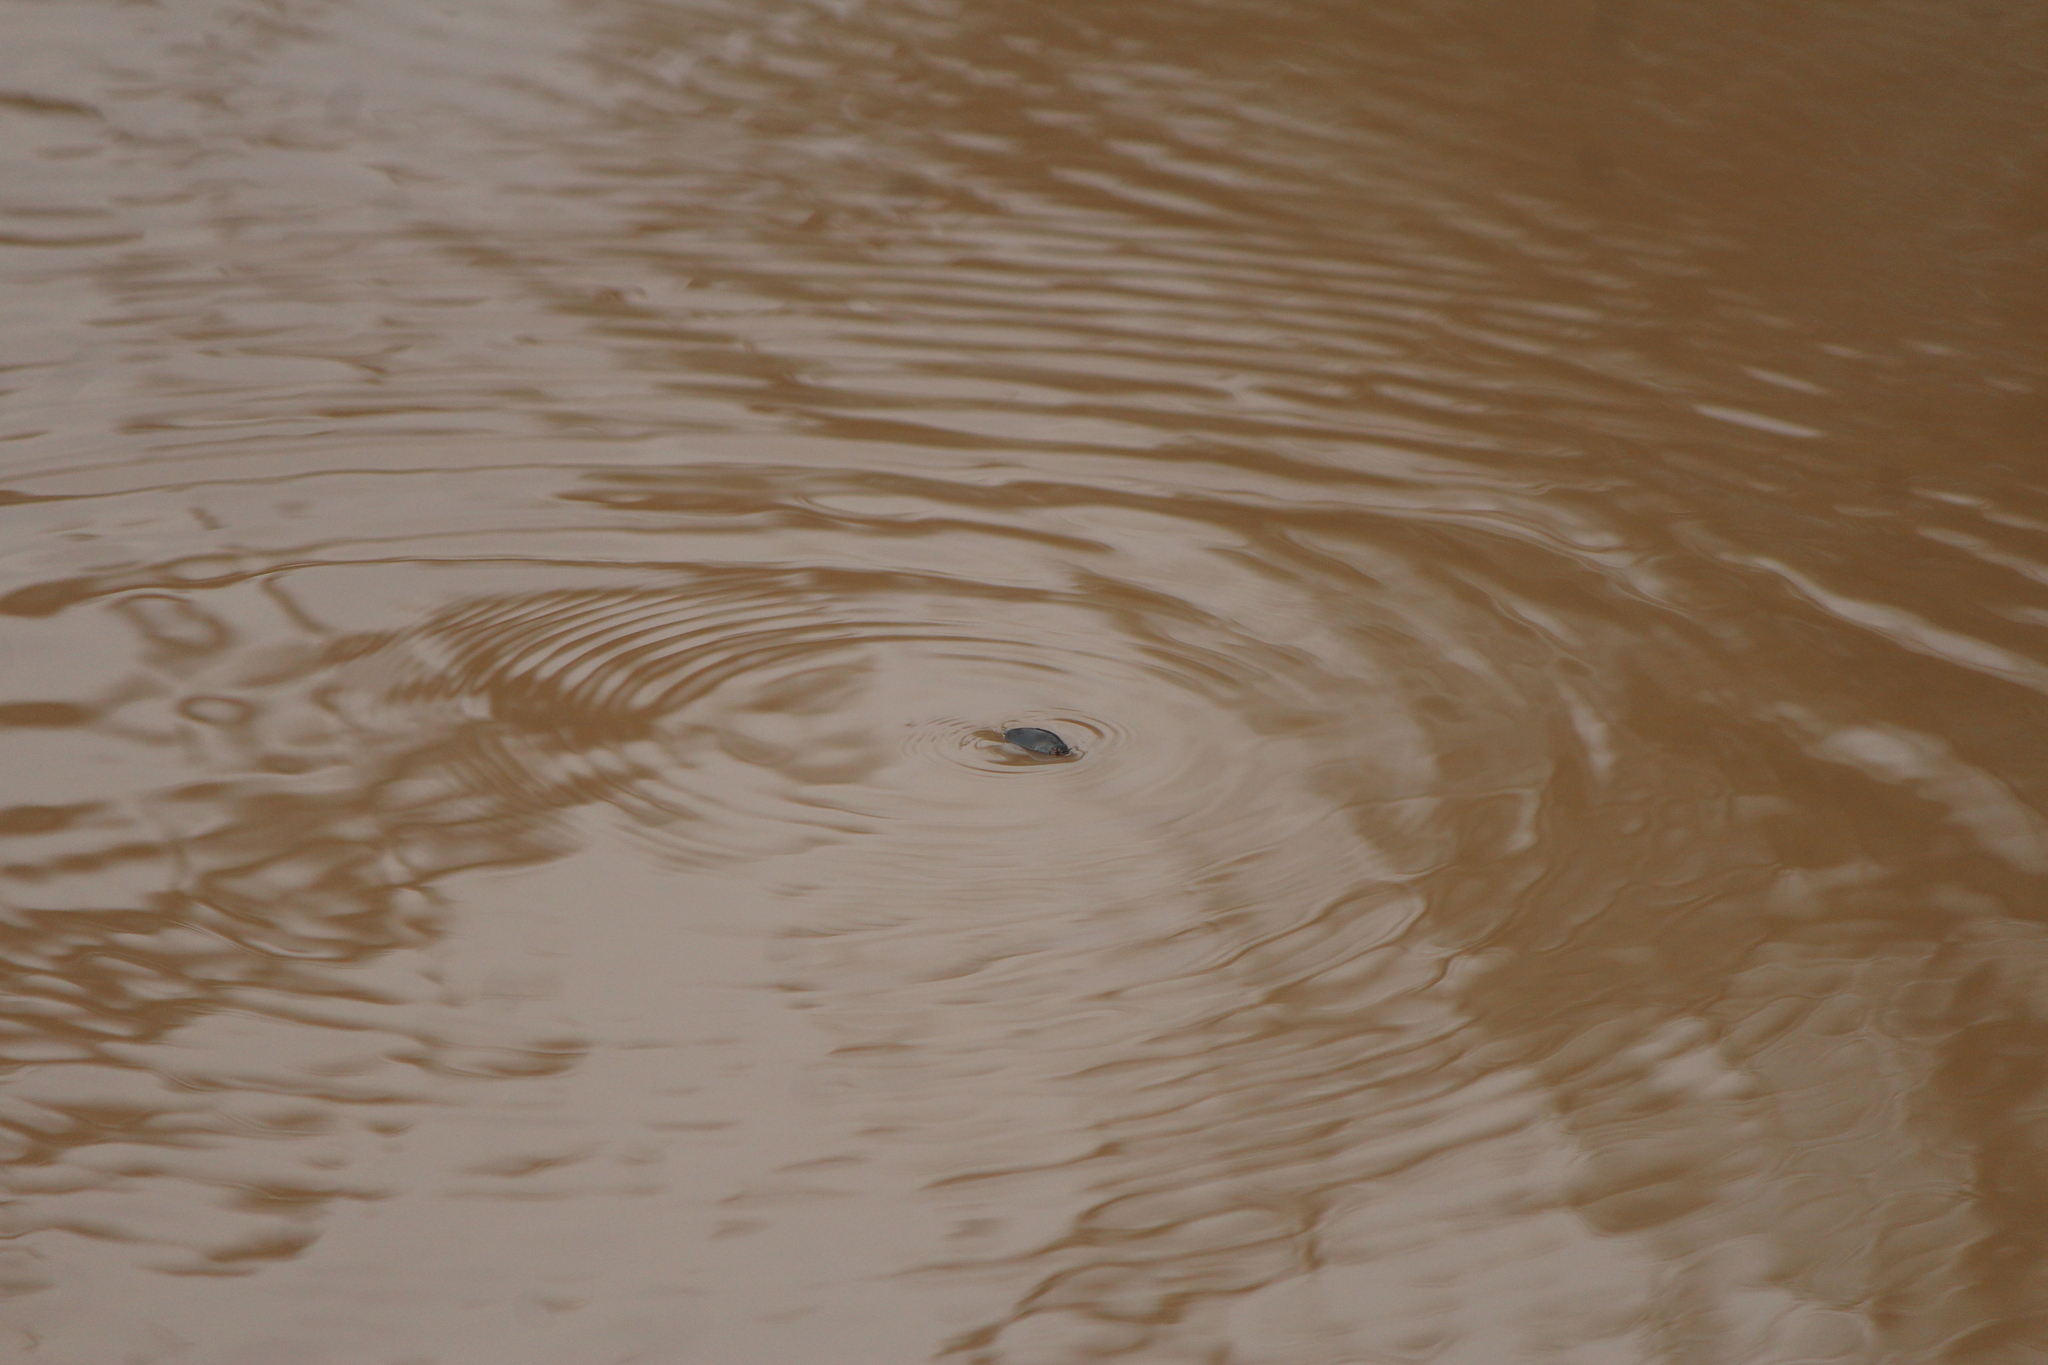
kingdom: Animalia
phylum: Arthropoda
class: Insecta
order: Coleoptera
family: Gyrinidae
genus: Dineutus
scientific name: Dineutus
